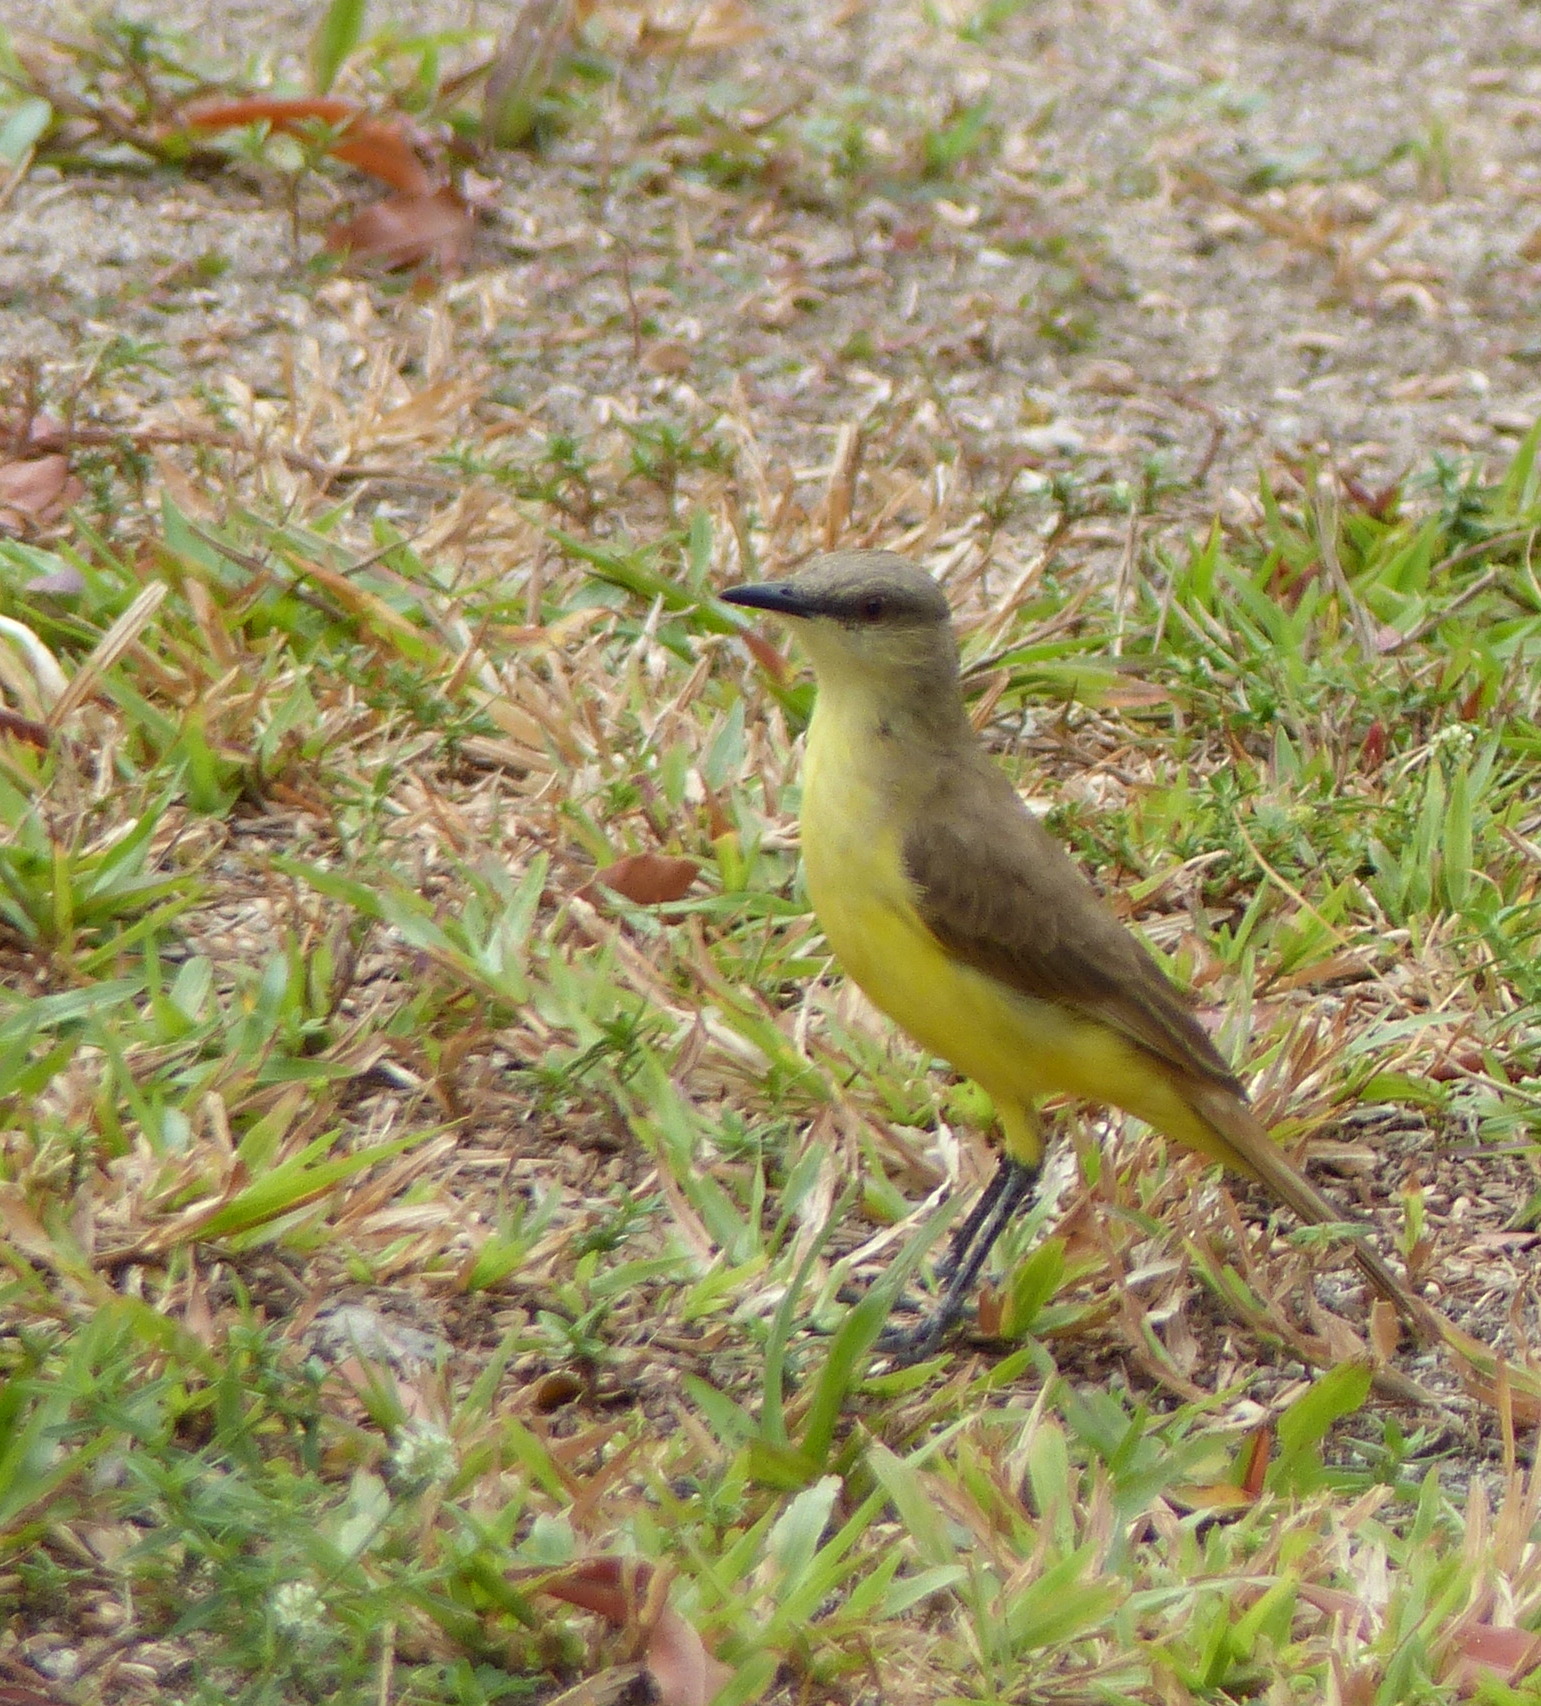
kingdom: Animalia
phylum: Chordata
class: Aves
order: Passeriformes
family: Tyrannidae
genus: Machetornis
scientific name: Machetornis rixosa
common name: Cattle tyrant
